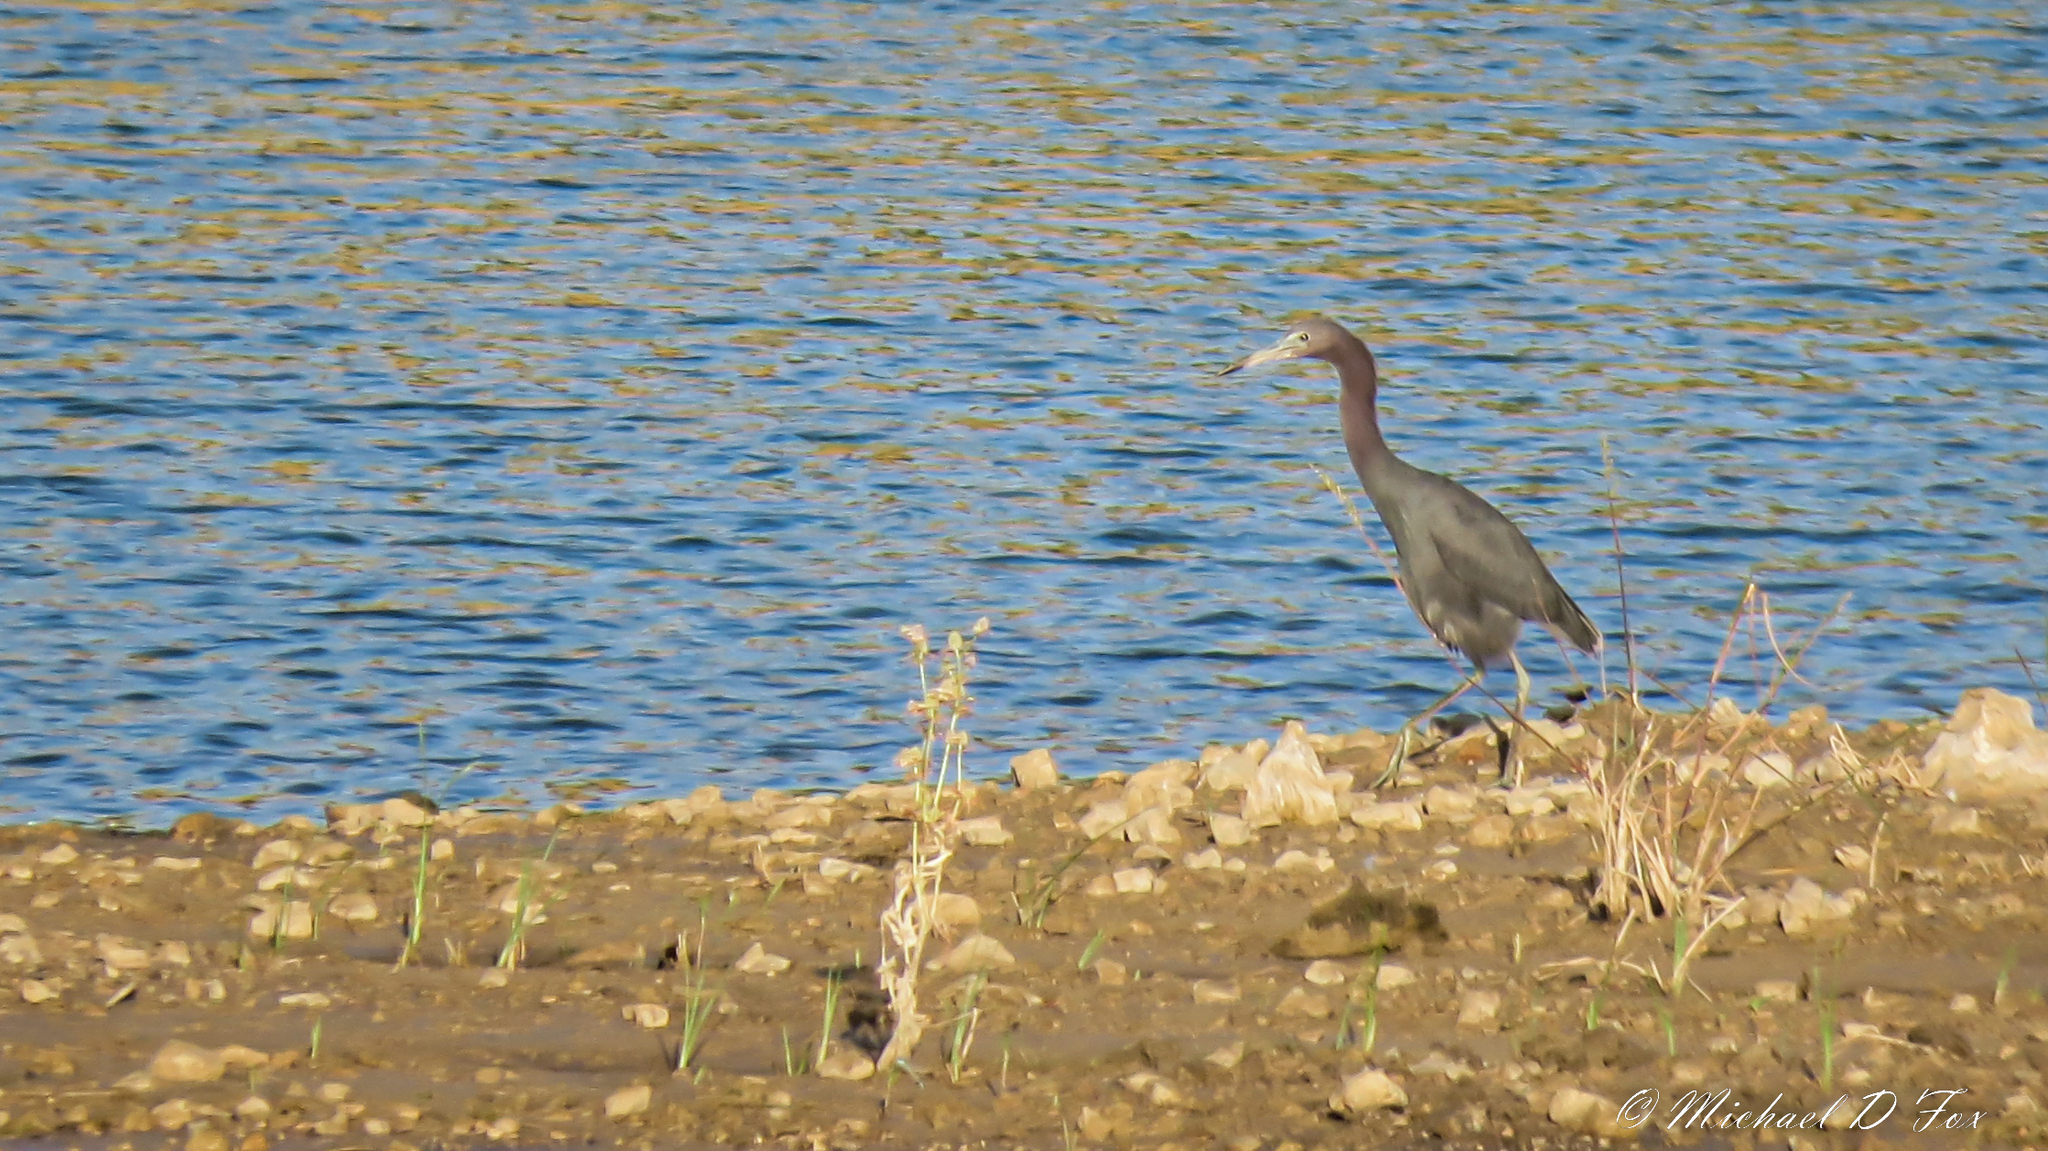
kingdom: Animalia
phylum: Chordata
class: Aves
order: Pelecaniformes
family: Ardeidae
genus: Egretta
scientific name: Egretta caerulea
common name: Little blue heron
